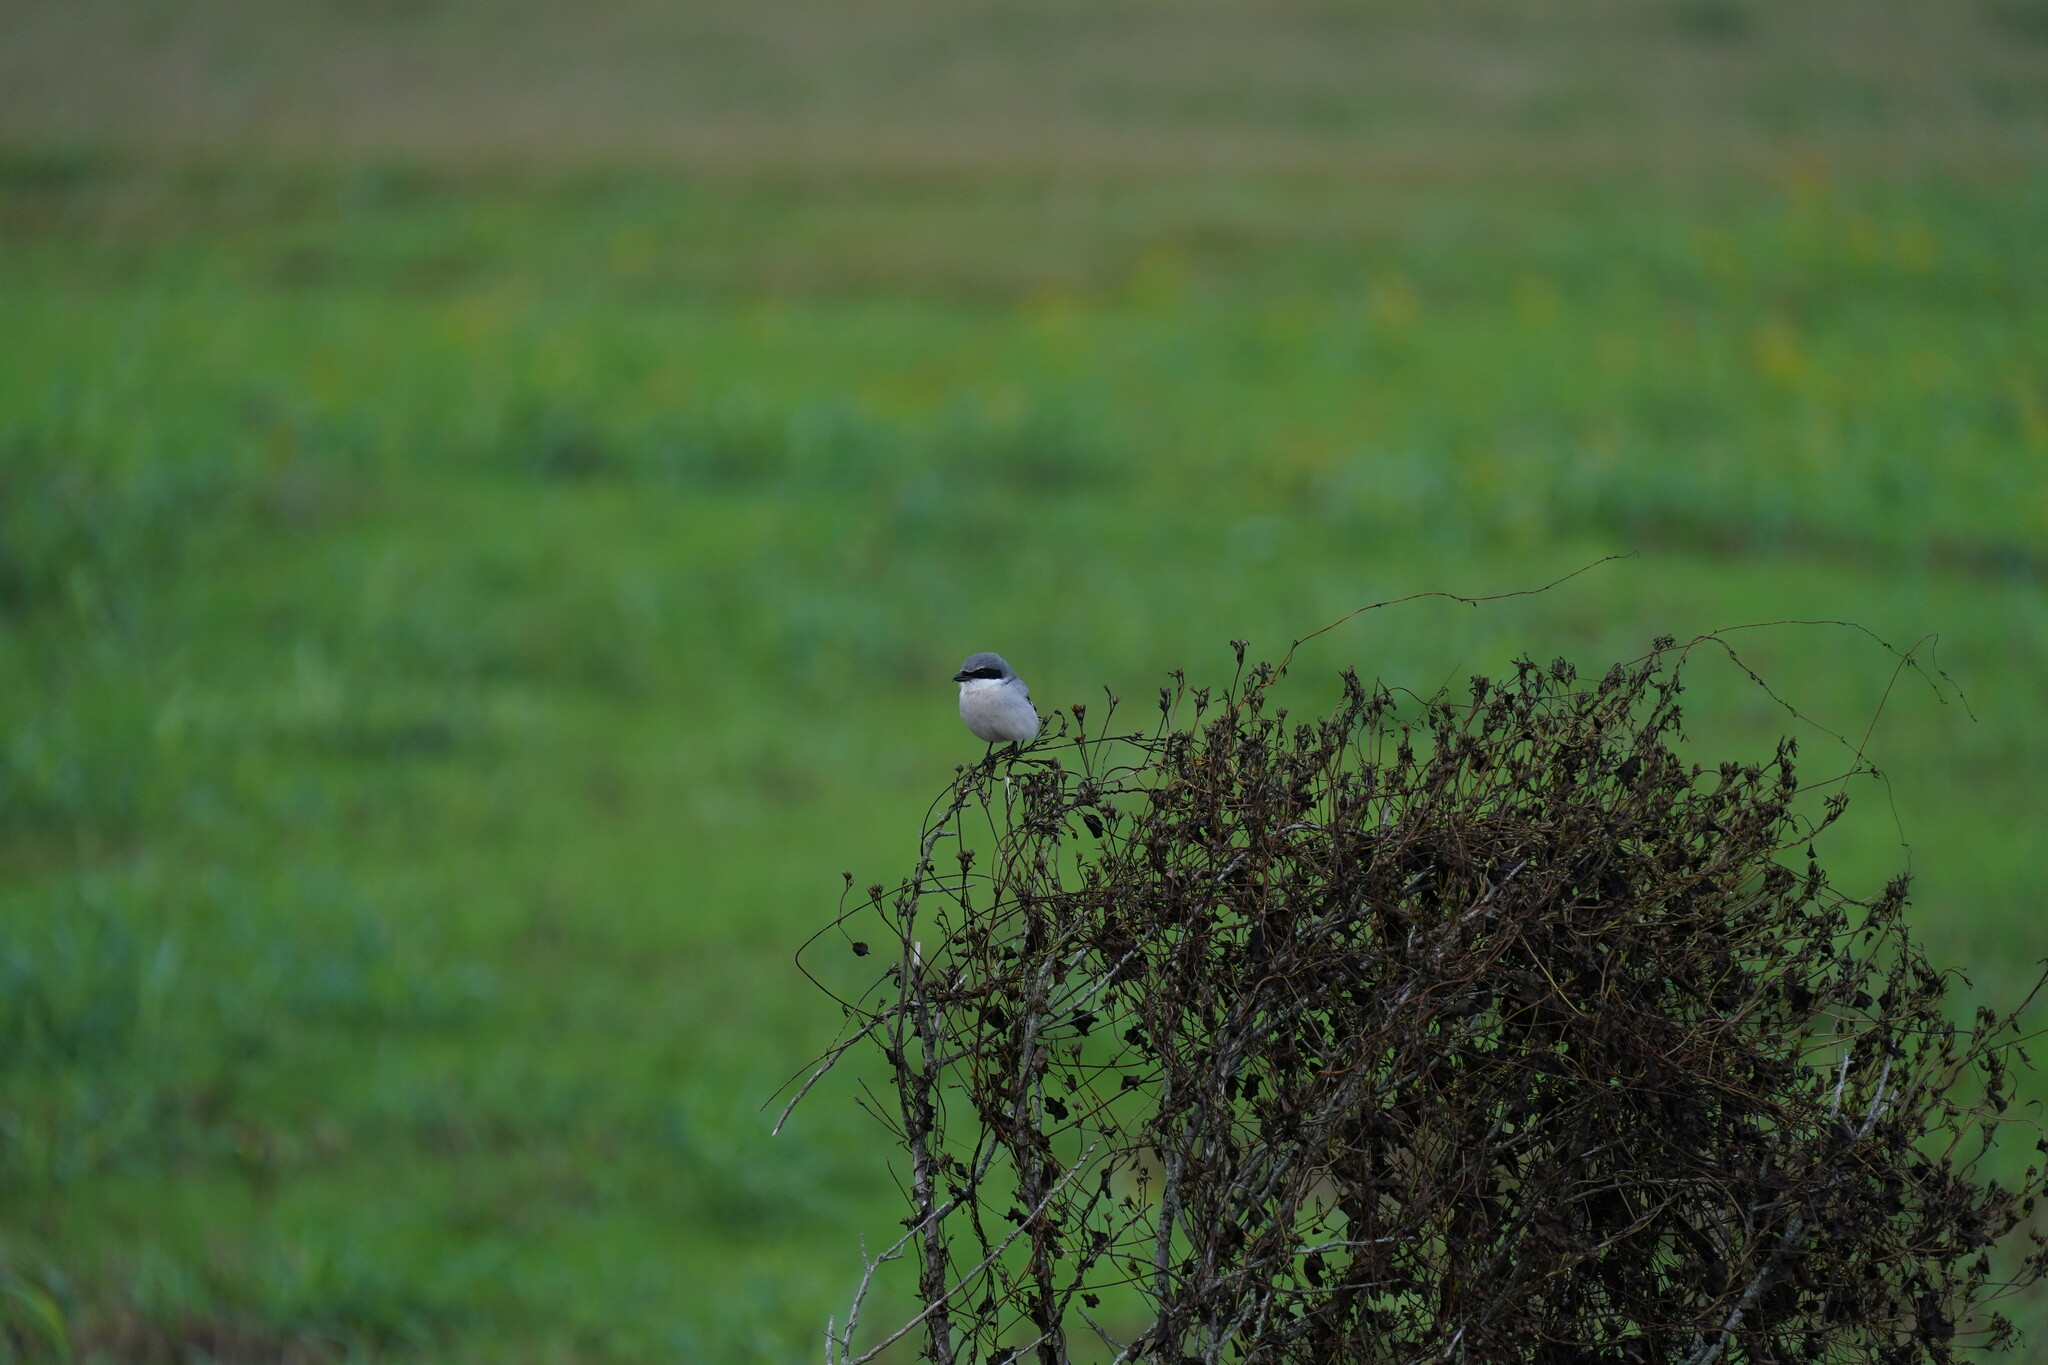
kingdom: Animalia
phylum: Chordata
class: Aves
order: Passeriformes
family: Laniidae
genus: Lanius
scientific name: Lanius ludovicianus
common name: Loggerhead shrike
